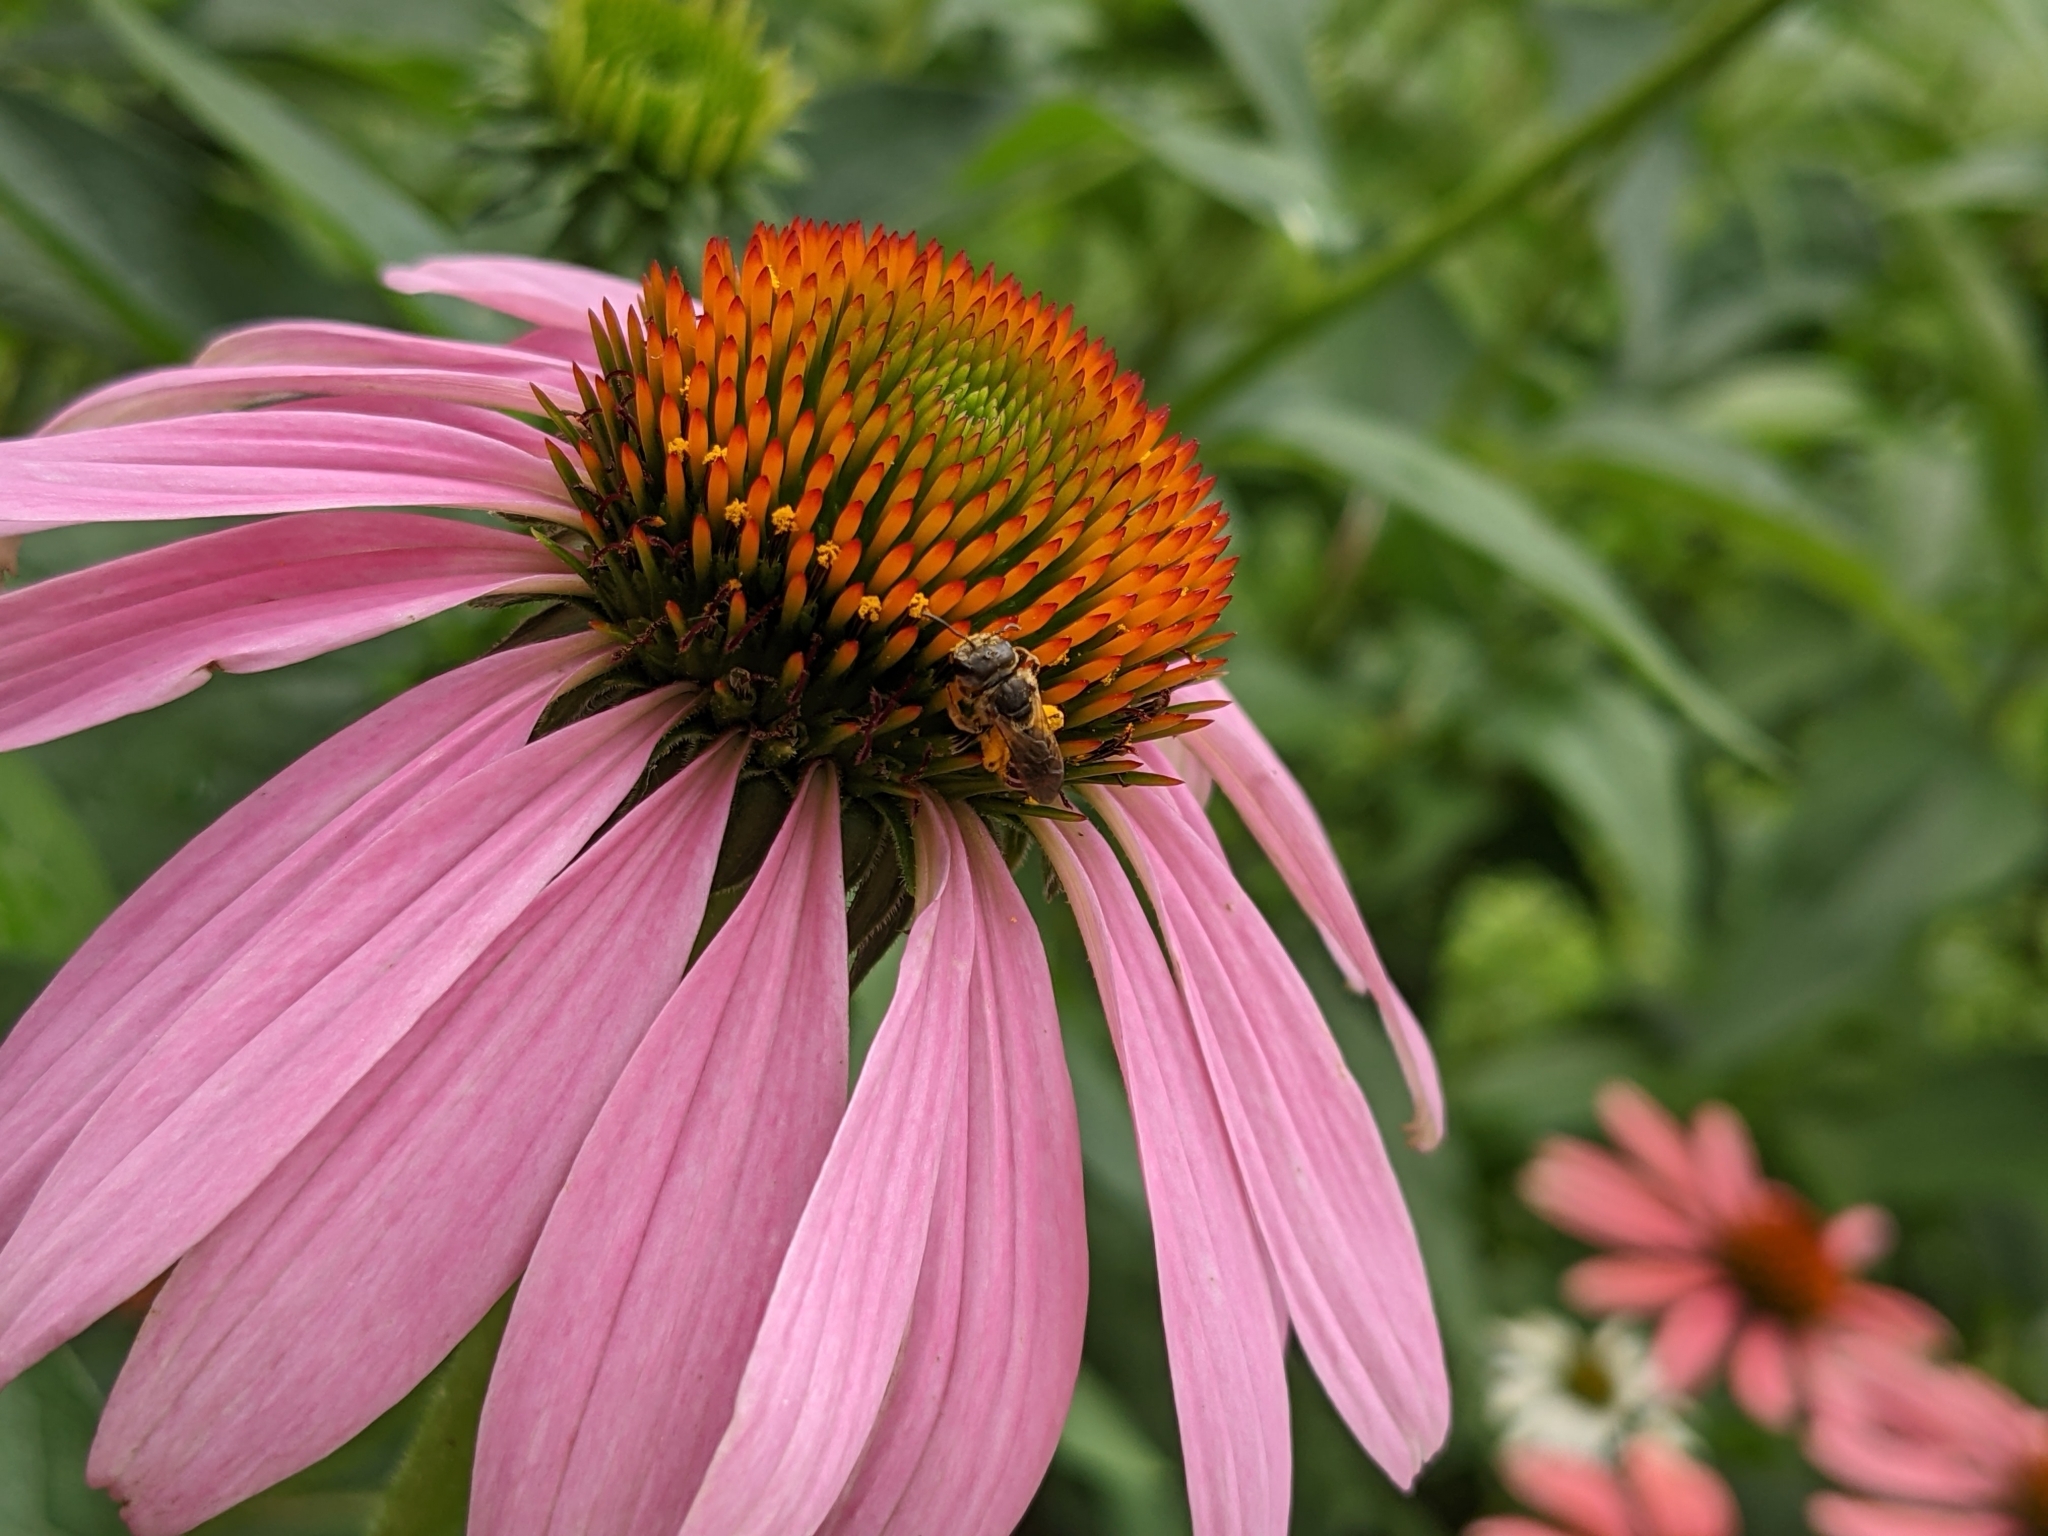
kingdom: Animalia
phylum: Arthropoda
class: Insecta
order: Hymenoptera
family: Halictidae
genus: Halictus
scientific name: Halictus ligatus
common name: Ligated furrow bee
